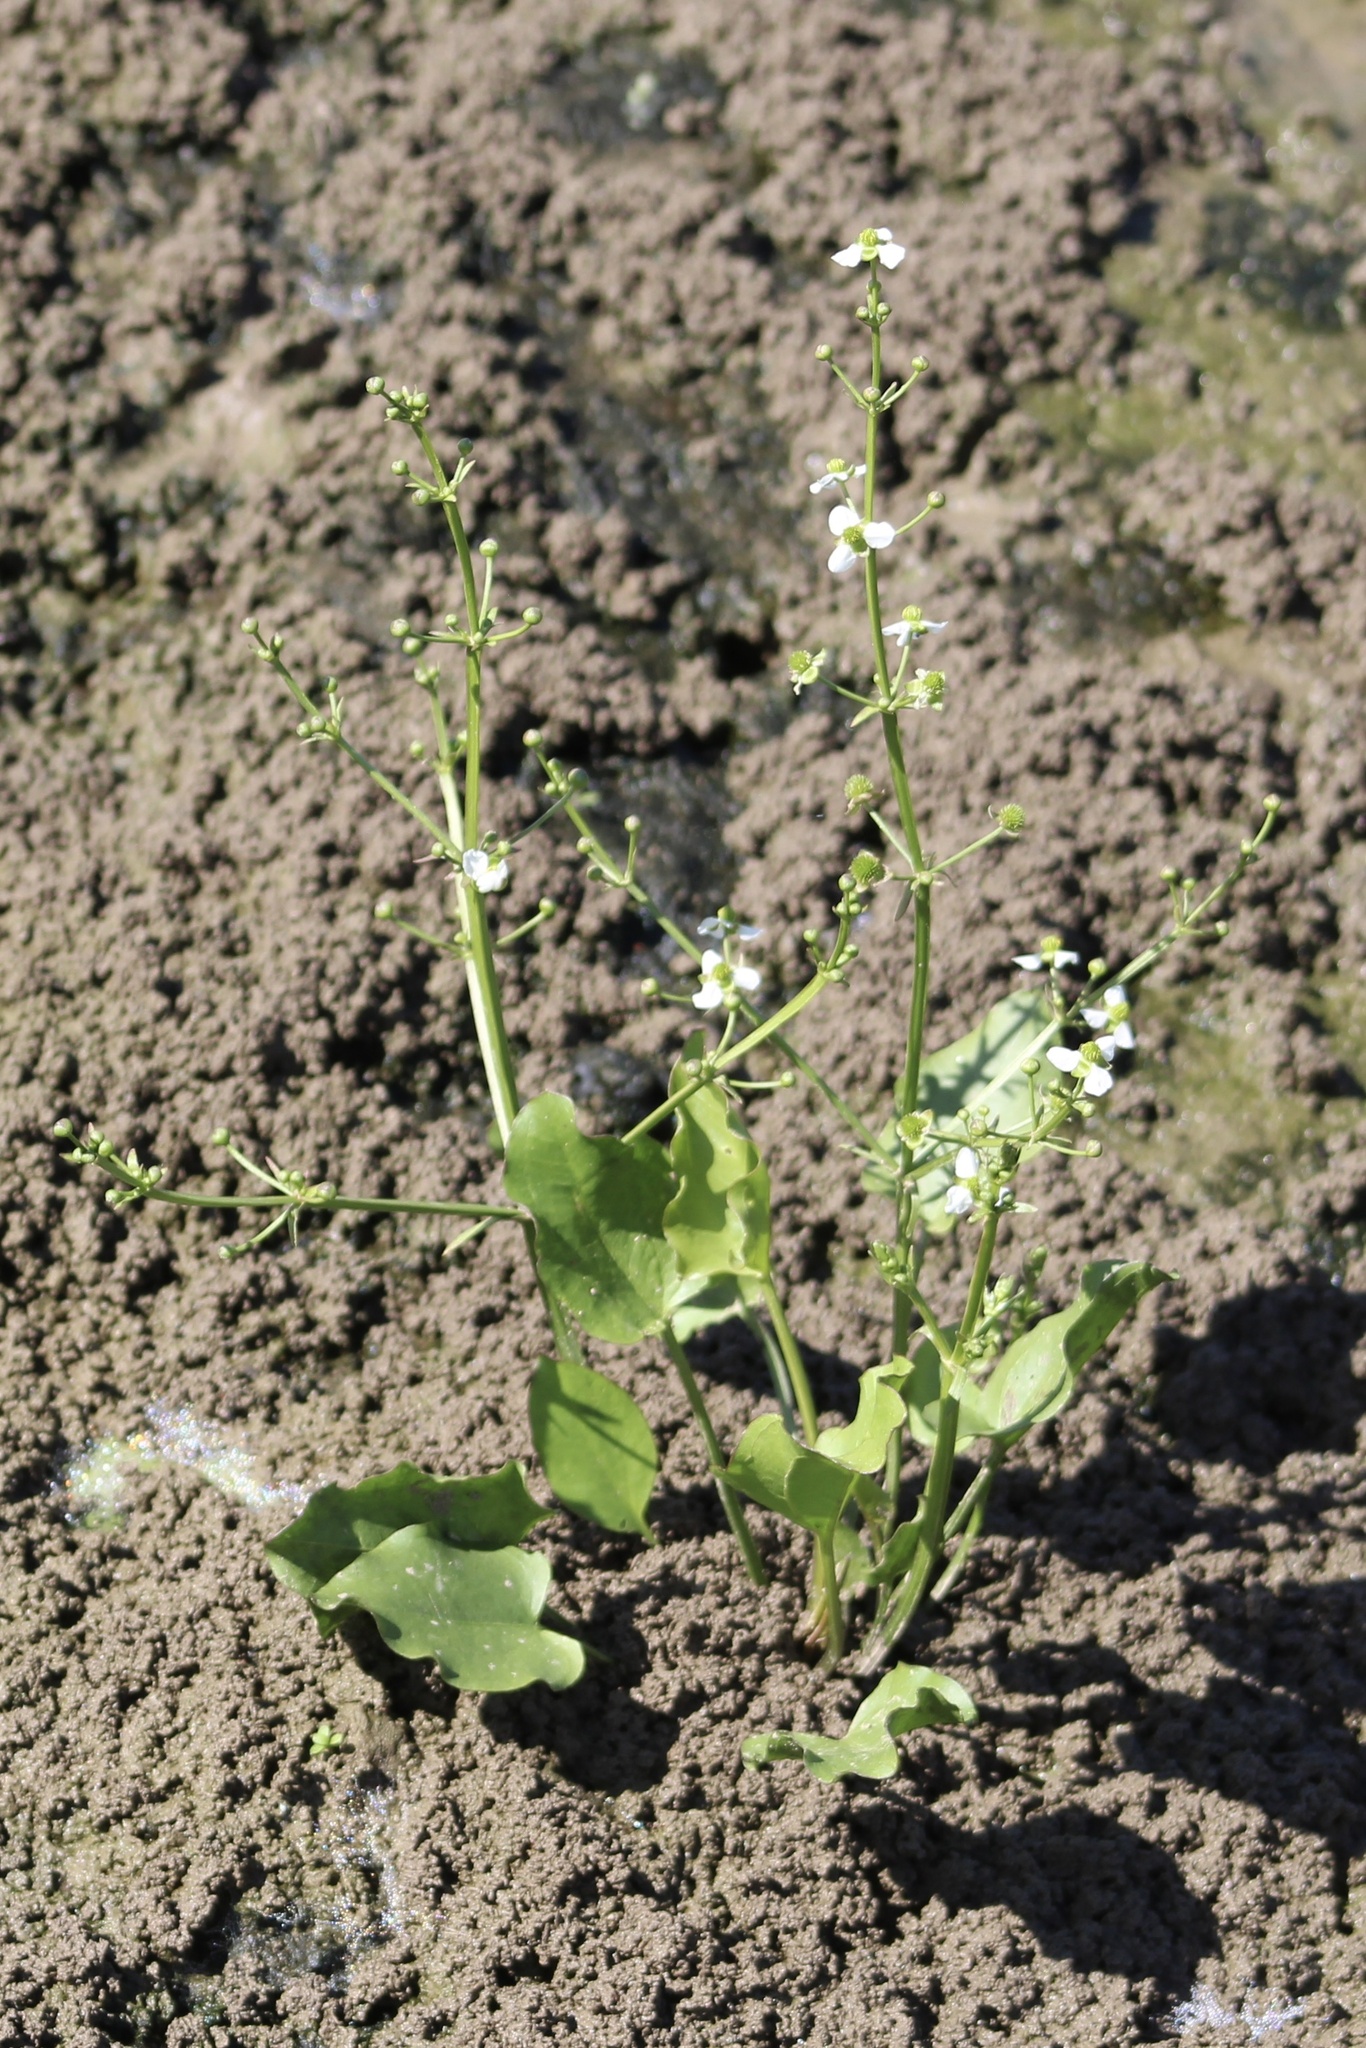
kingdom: Plantae
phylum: Tracheophyta
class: Liliopsida
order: Alismatales
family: Alismataceae
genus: Echinodorus
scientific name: Echinodorus berteroi
